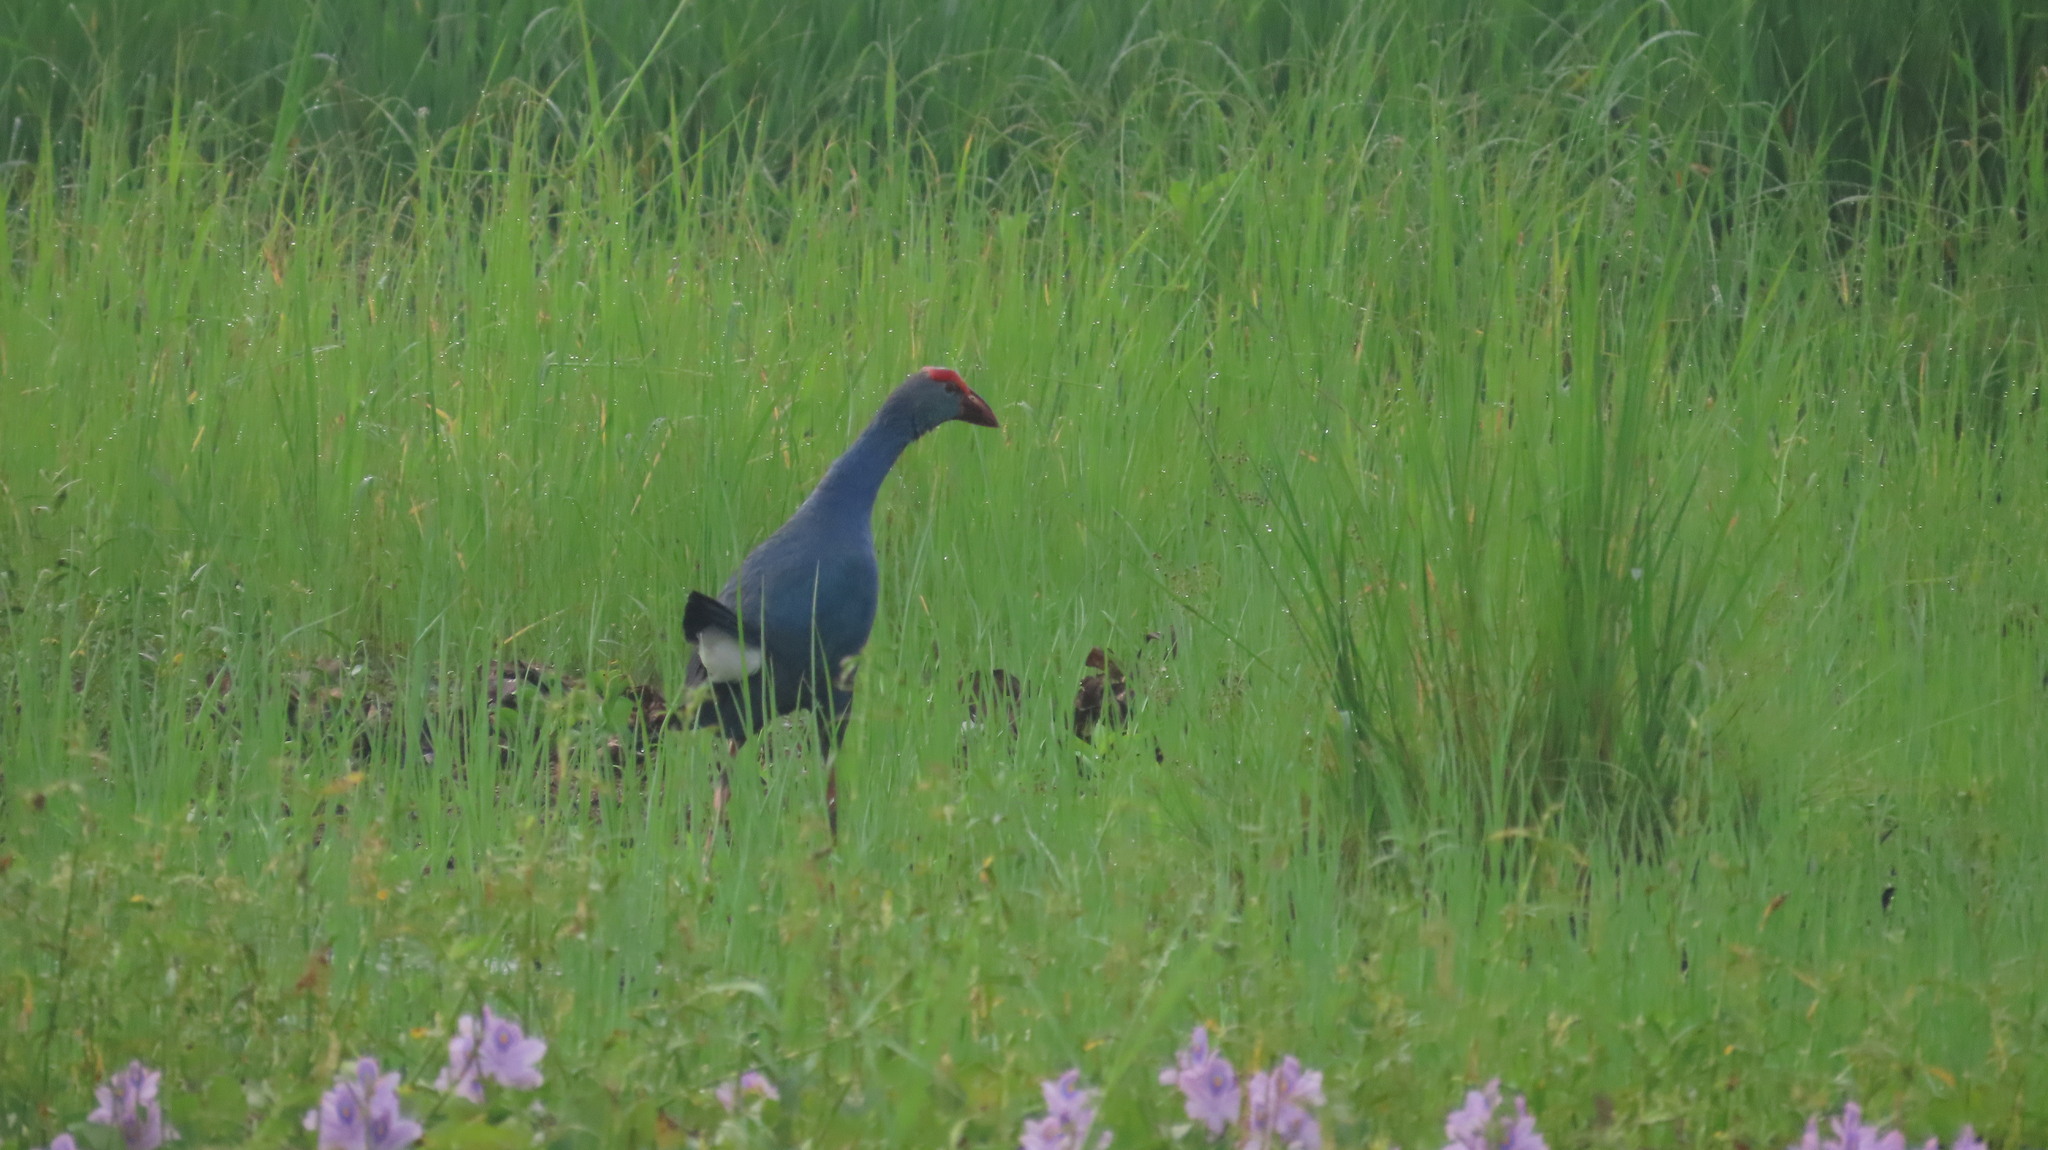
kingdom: Animalia
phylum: Chordata
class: Aves
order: Gruiformes
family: Rallidae
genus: Porphyrio
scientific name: Porphyrio porphyrio
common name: Purple swamphen
